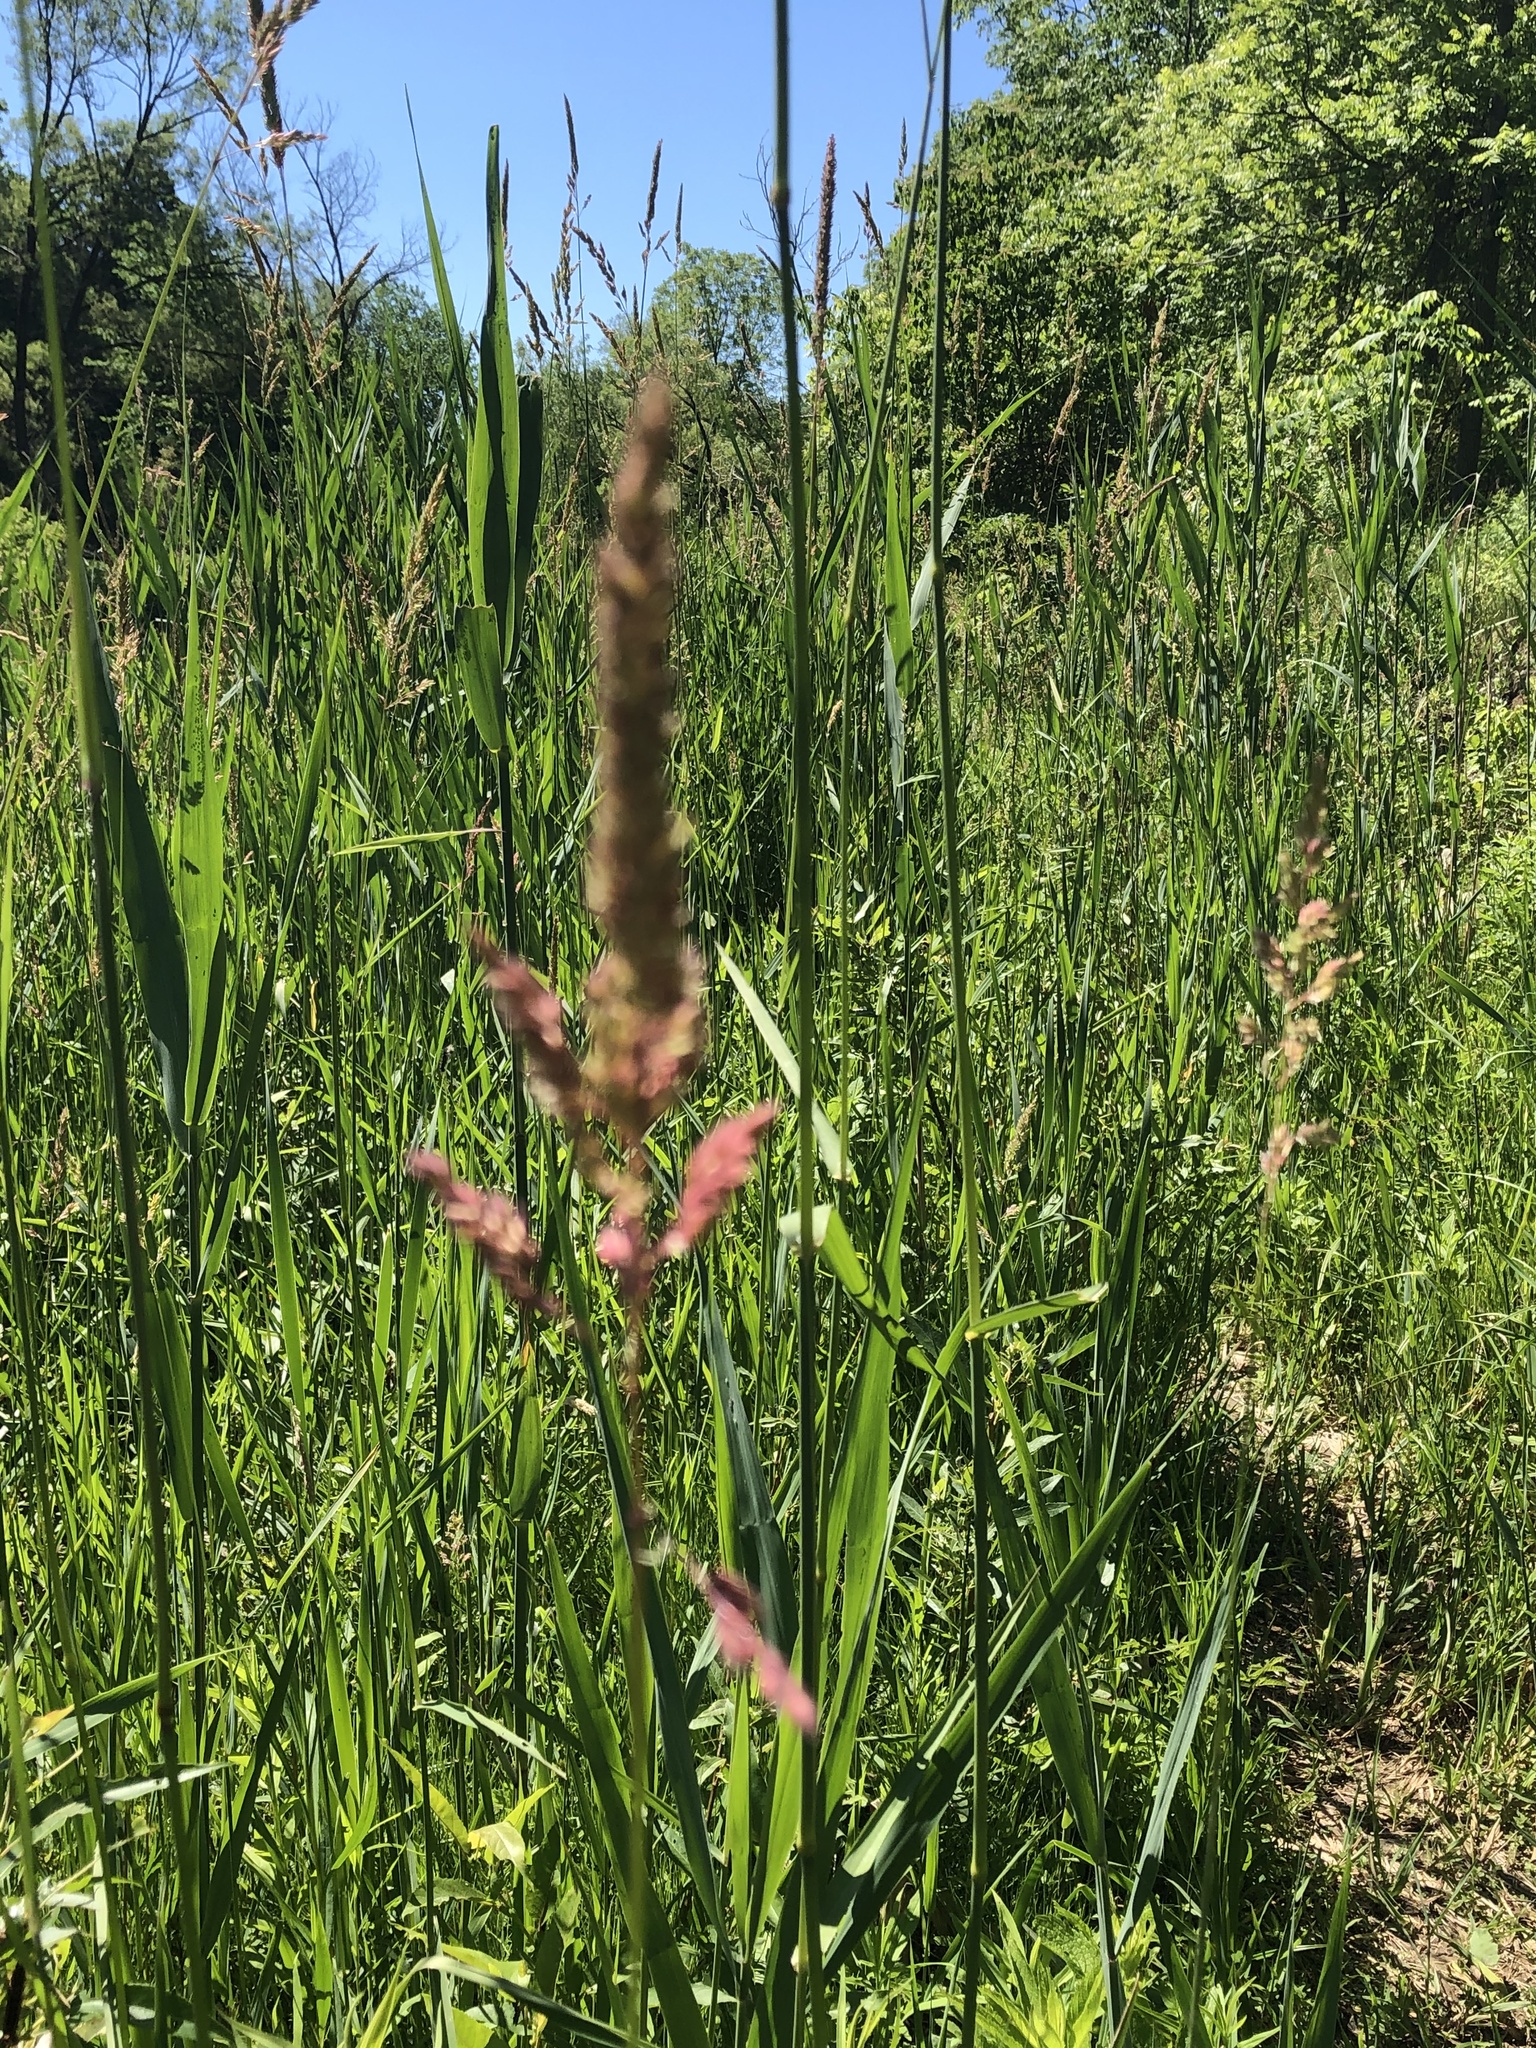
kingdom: Plantae
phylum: Tracheophyta
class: Liliopsida
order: Poales
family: Poaceae
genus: Phalaris
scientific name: Phalaris arundinacea
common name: Reed canary-grass
